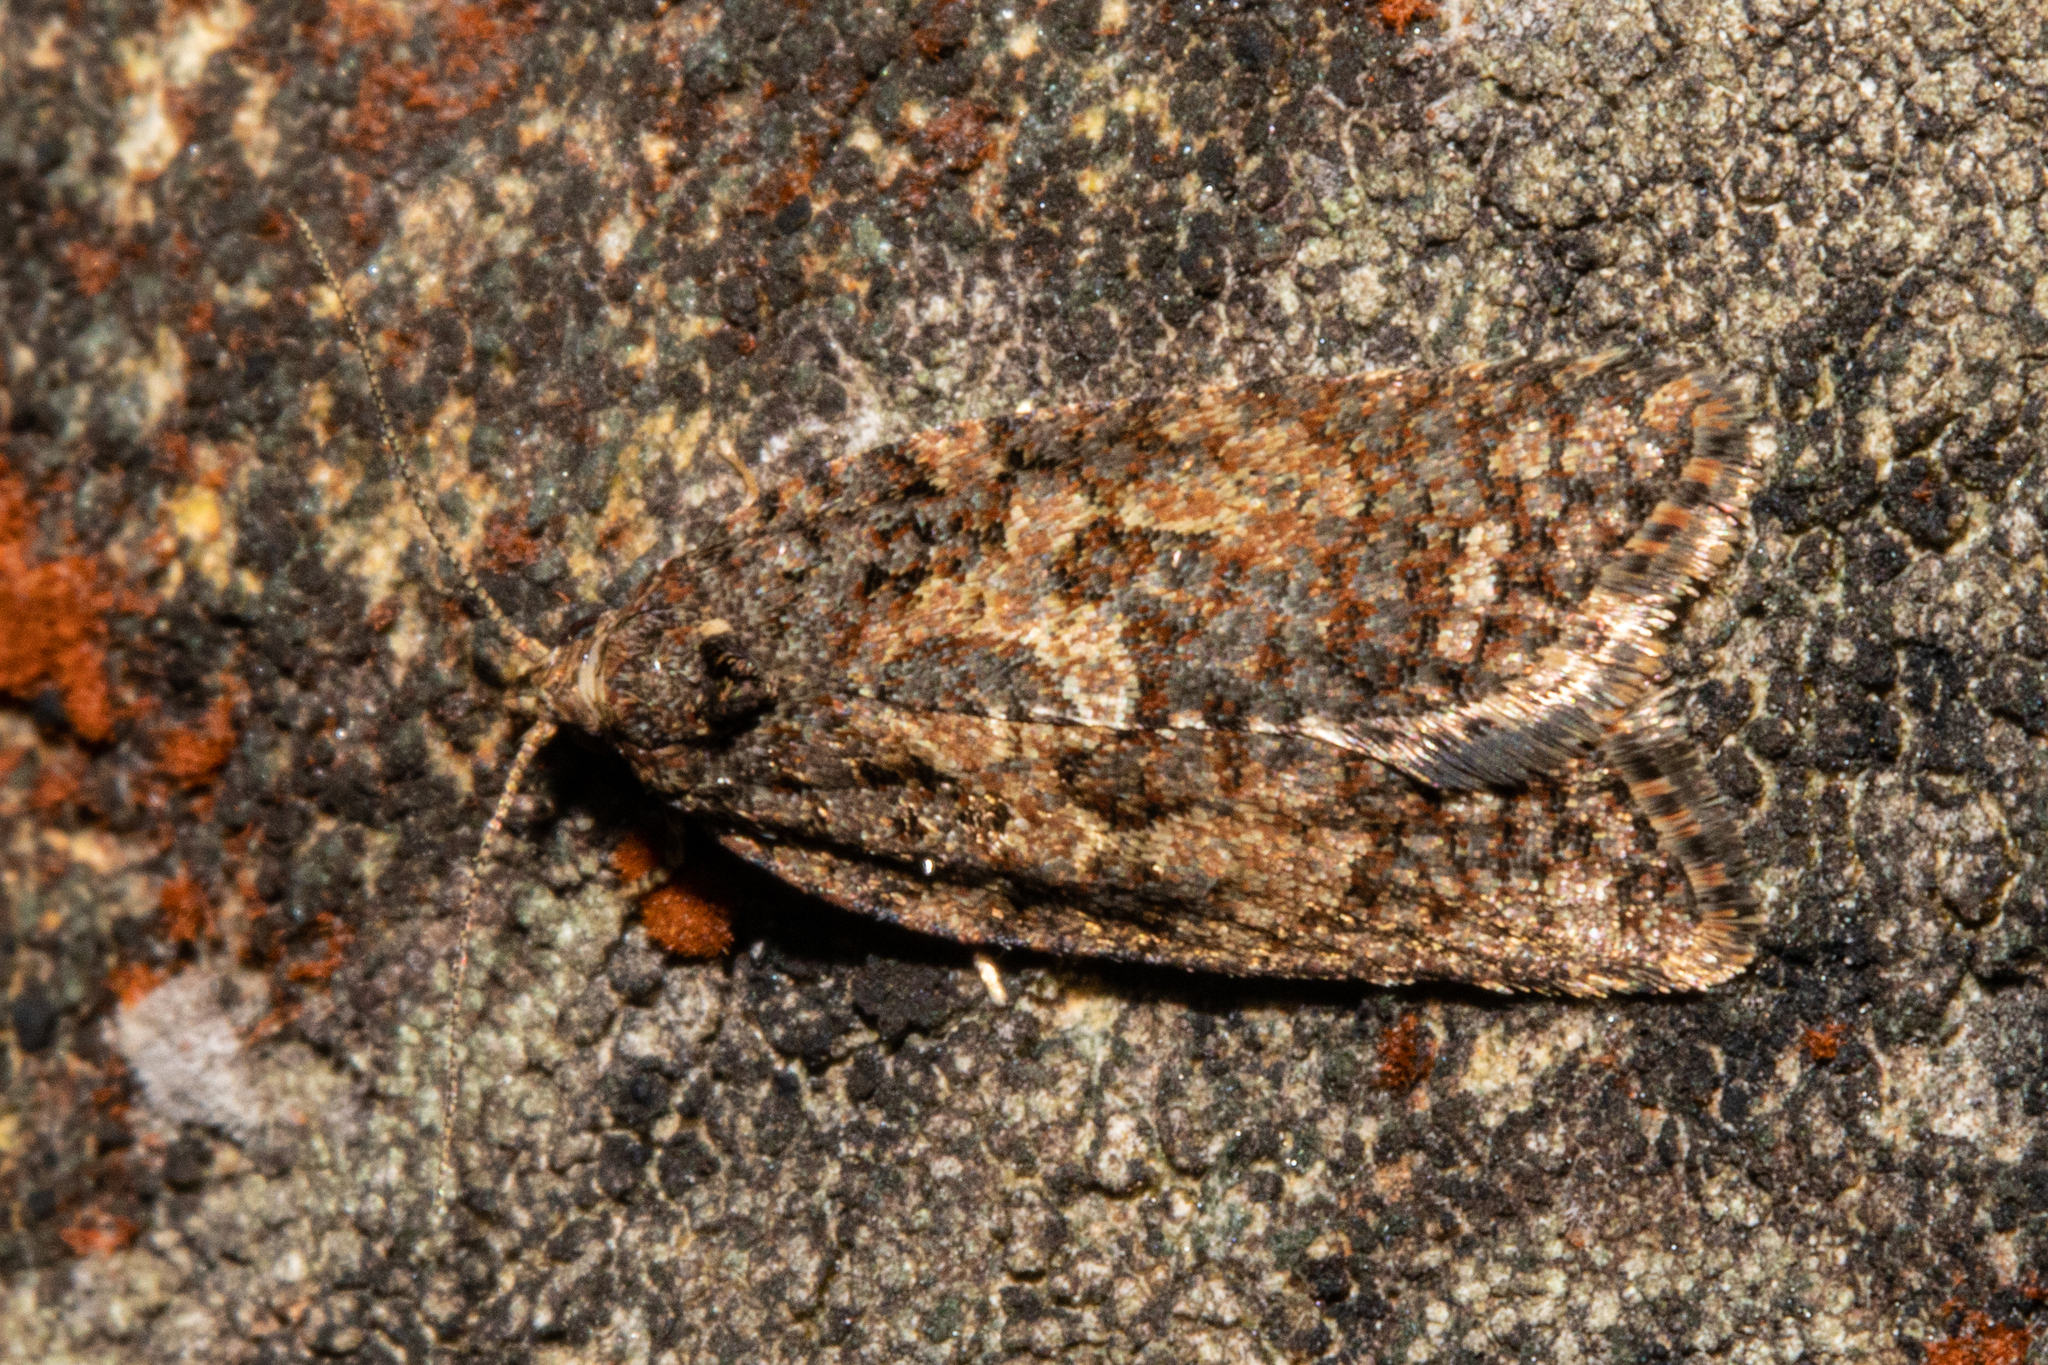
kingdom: Animalia
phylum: Arthropoda
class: Insecta
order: Lepidoptera
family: Tortricidae
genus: Capua
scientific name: Capua intractana
